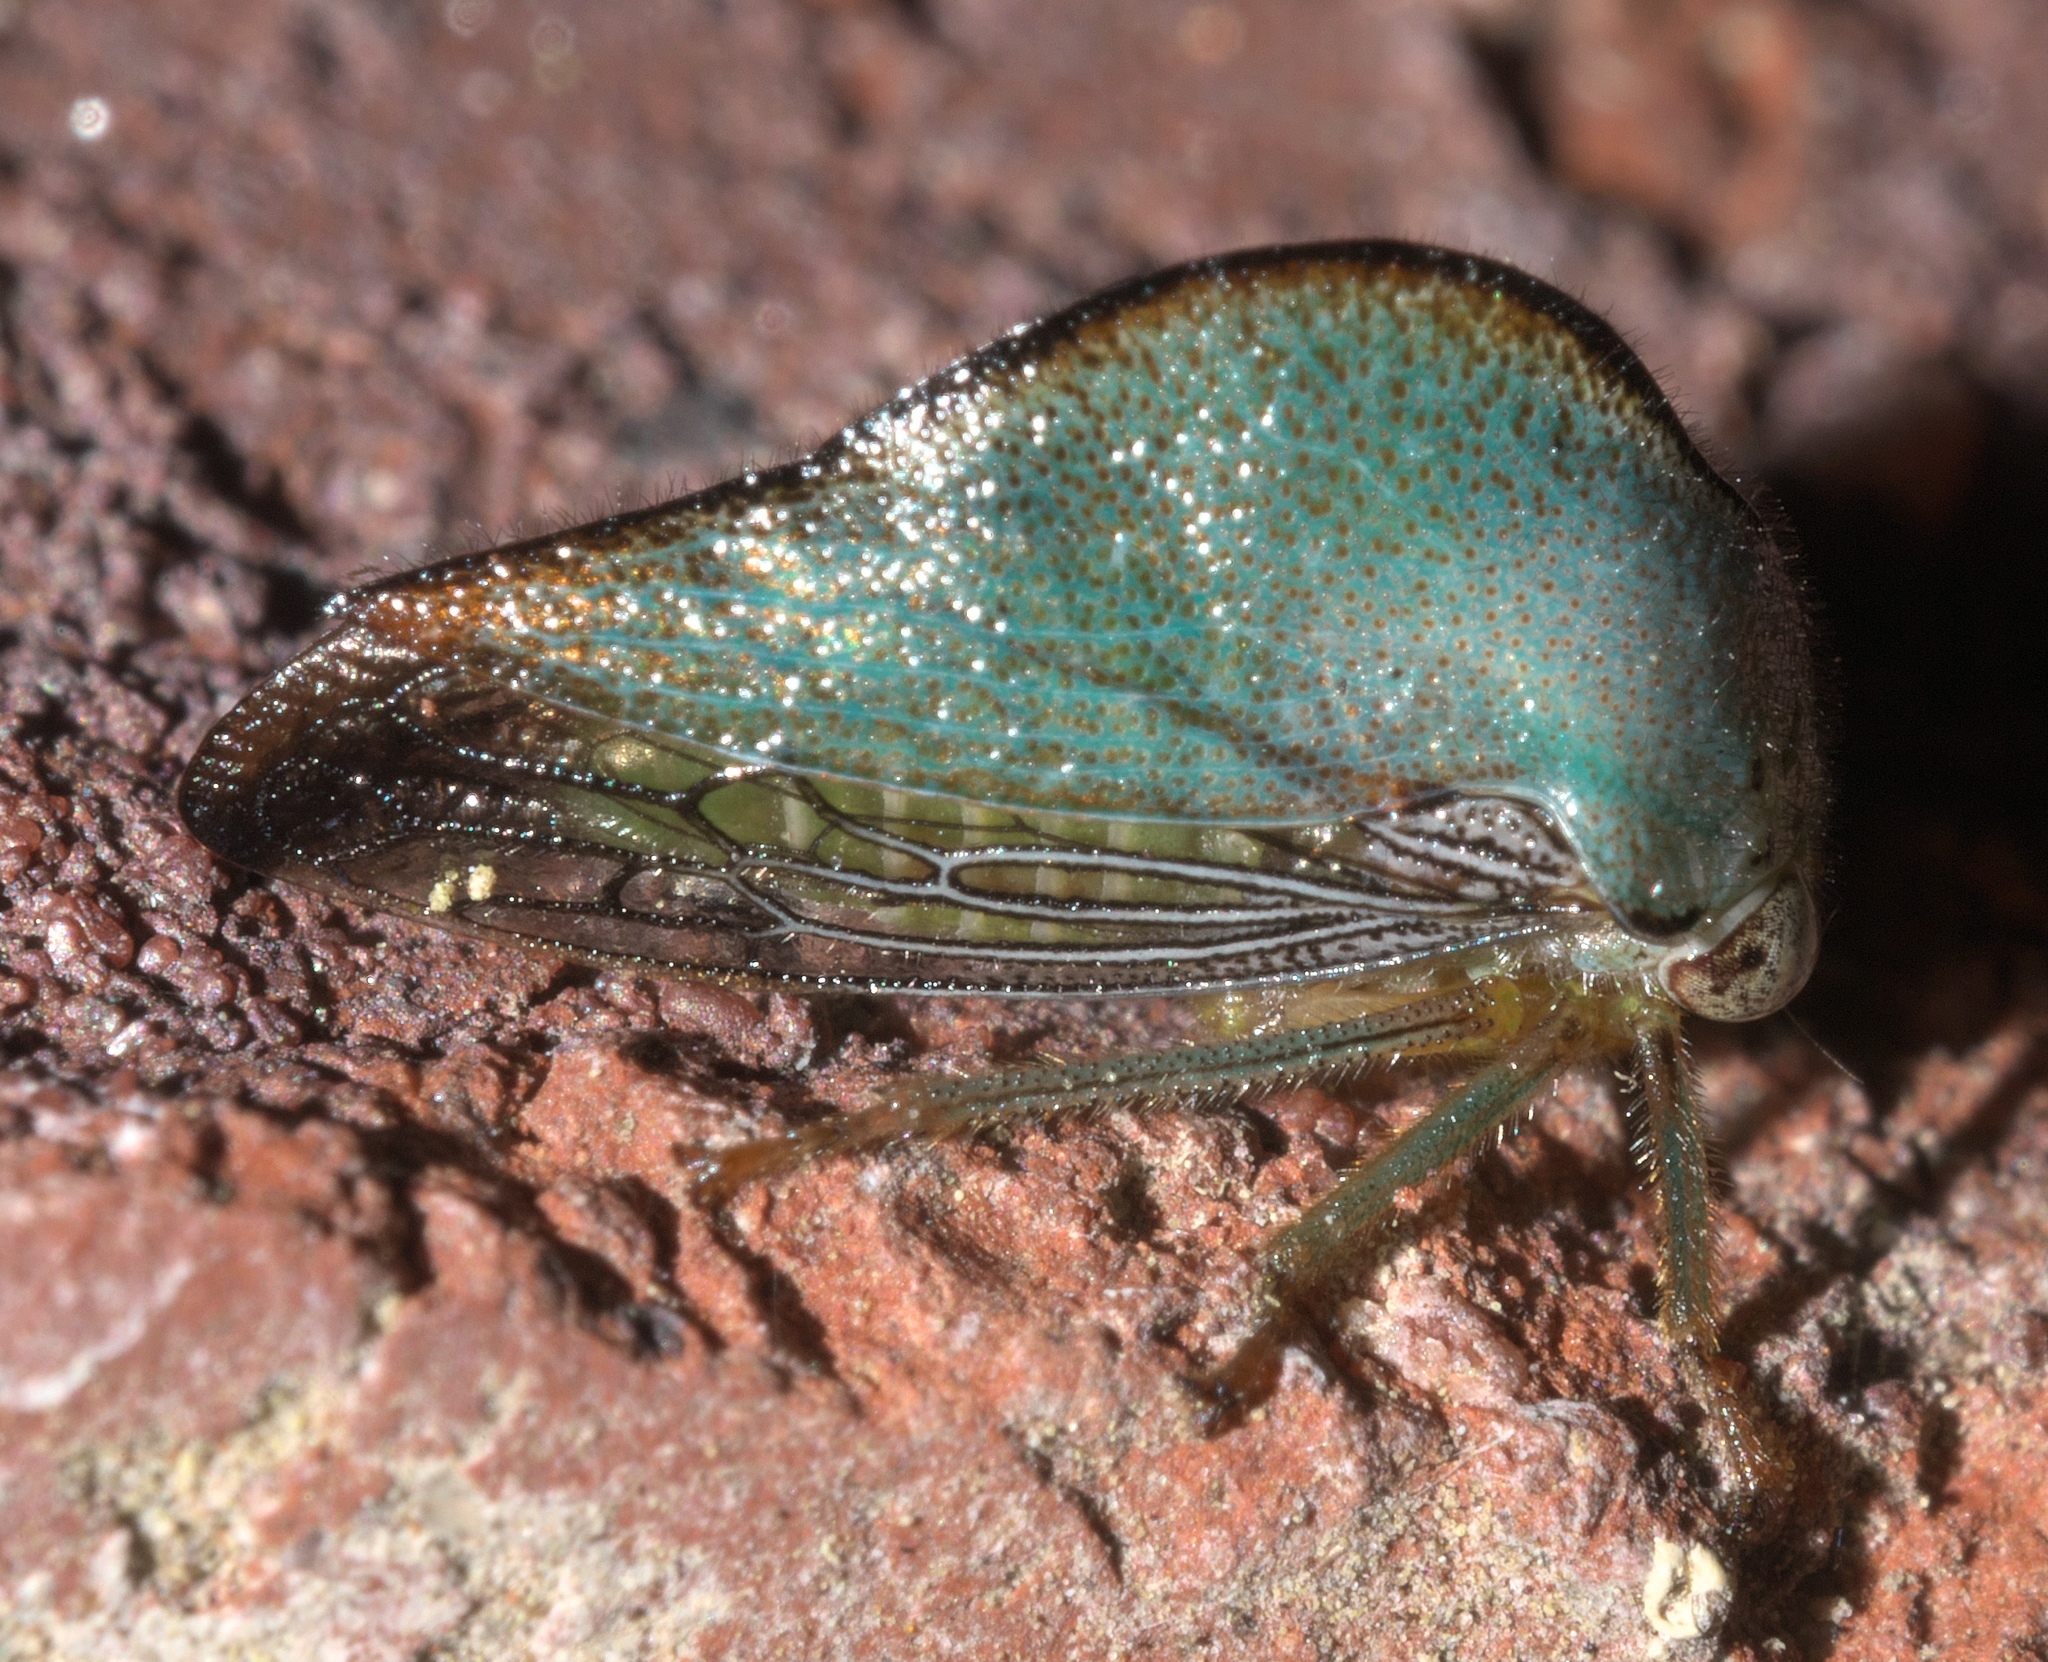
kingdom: Animalia
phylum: Arthropoda
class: Insecta
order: Hemiptera
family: Membracidae
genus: Archasia
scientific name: Archasia pallida
